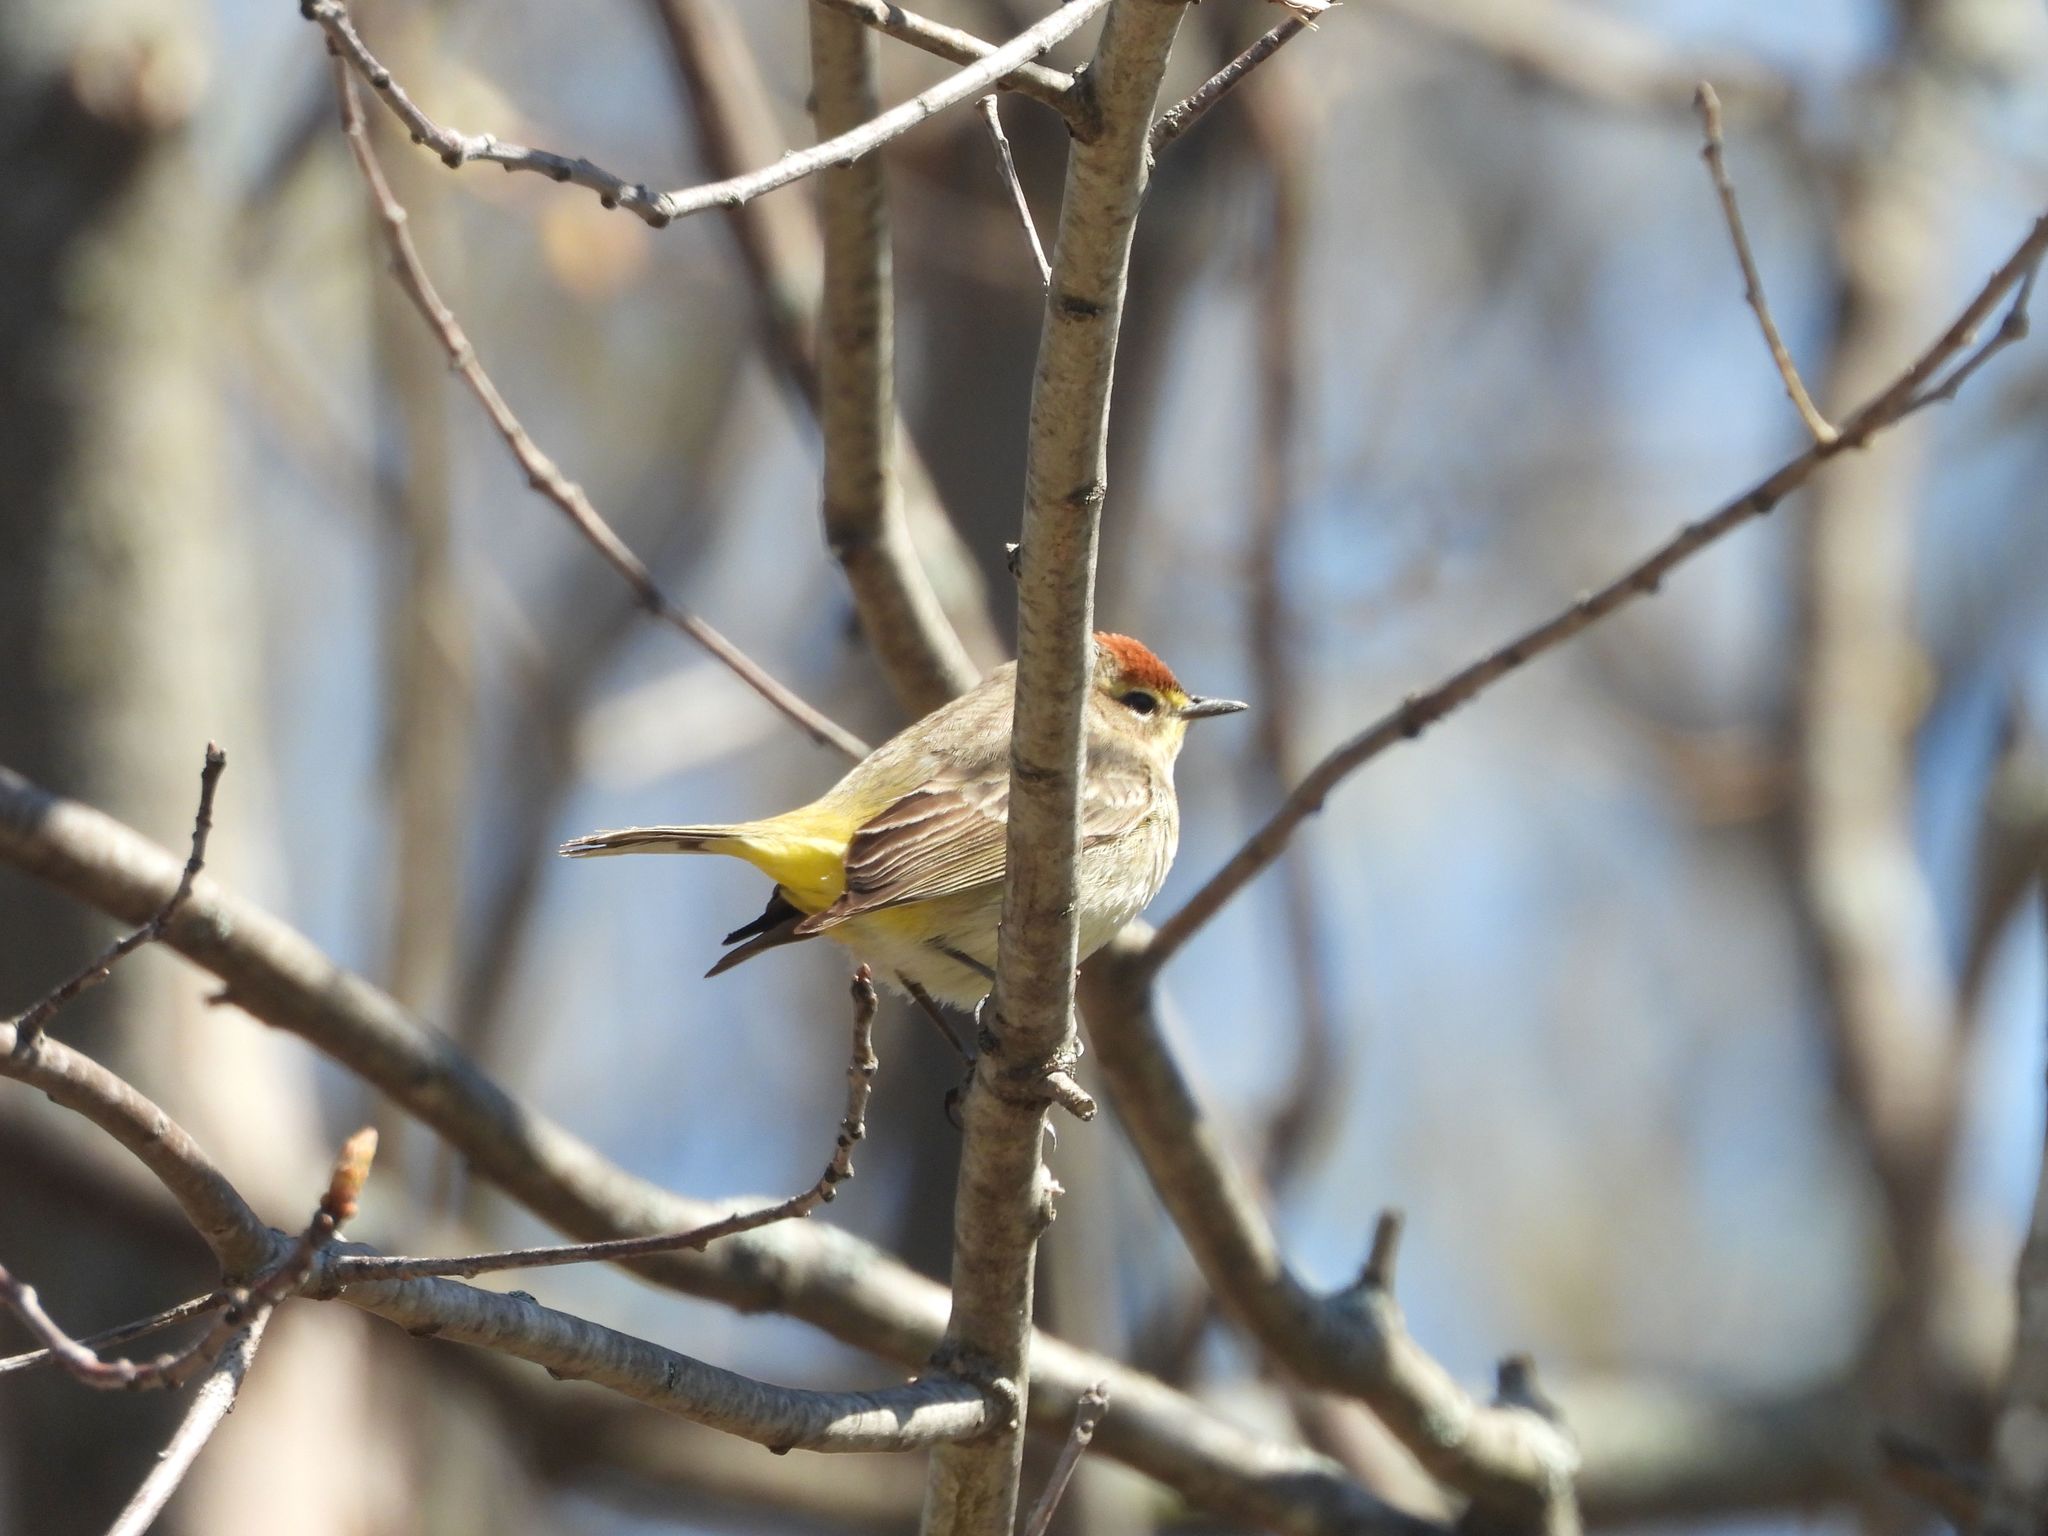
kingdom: Animalia
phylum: Chordata
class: Aves
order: Passeriformes
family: Parulidae
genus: Setophaga
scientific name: Setophaga palmarum
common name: Palm warbler
